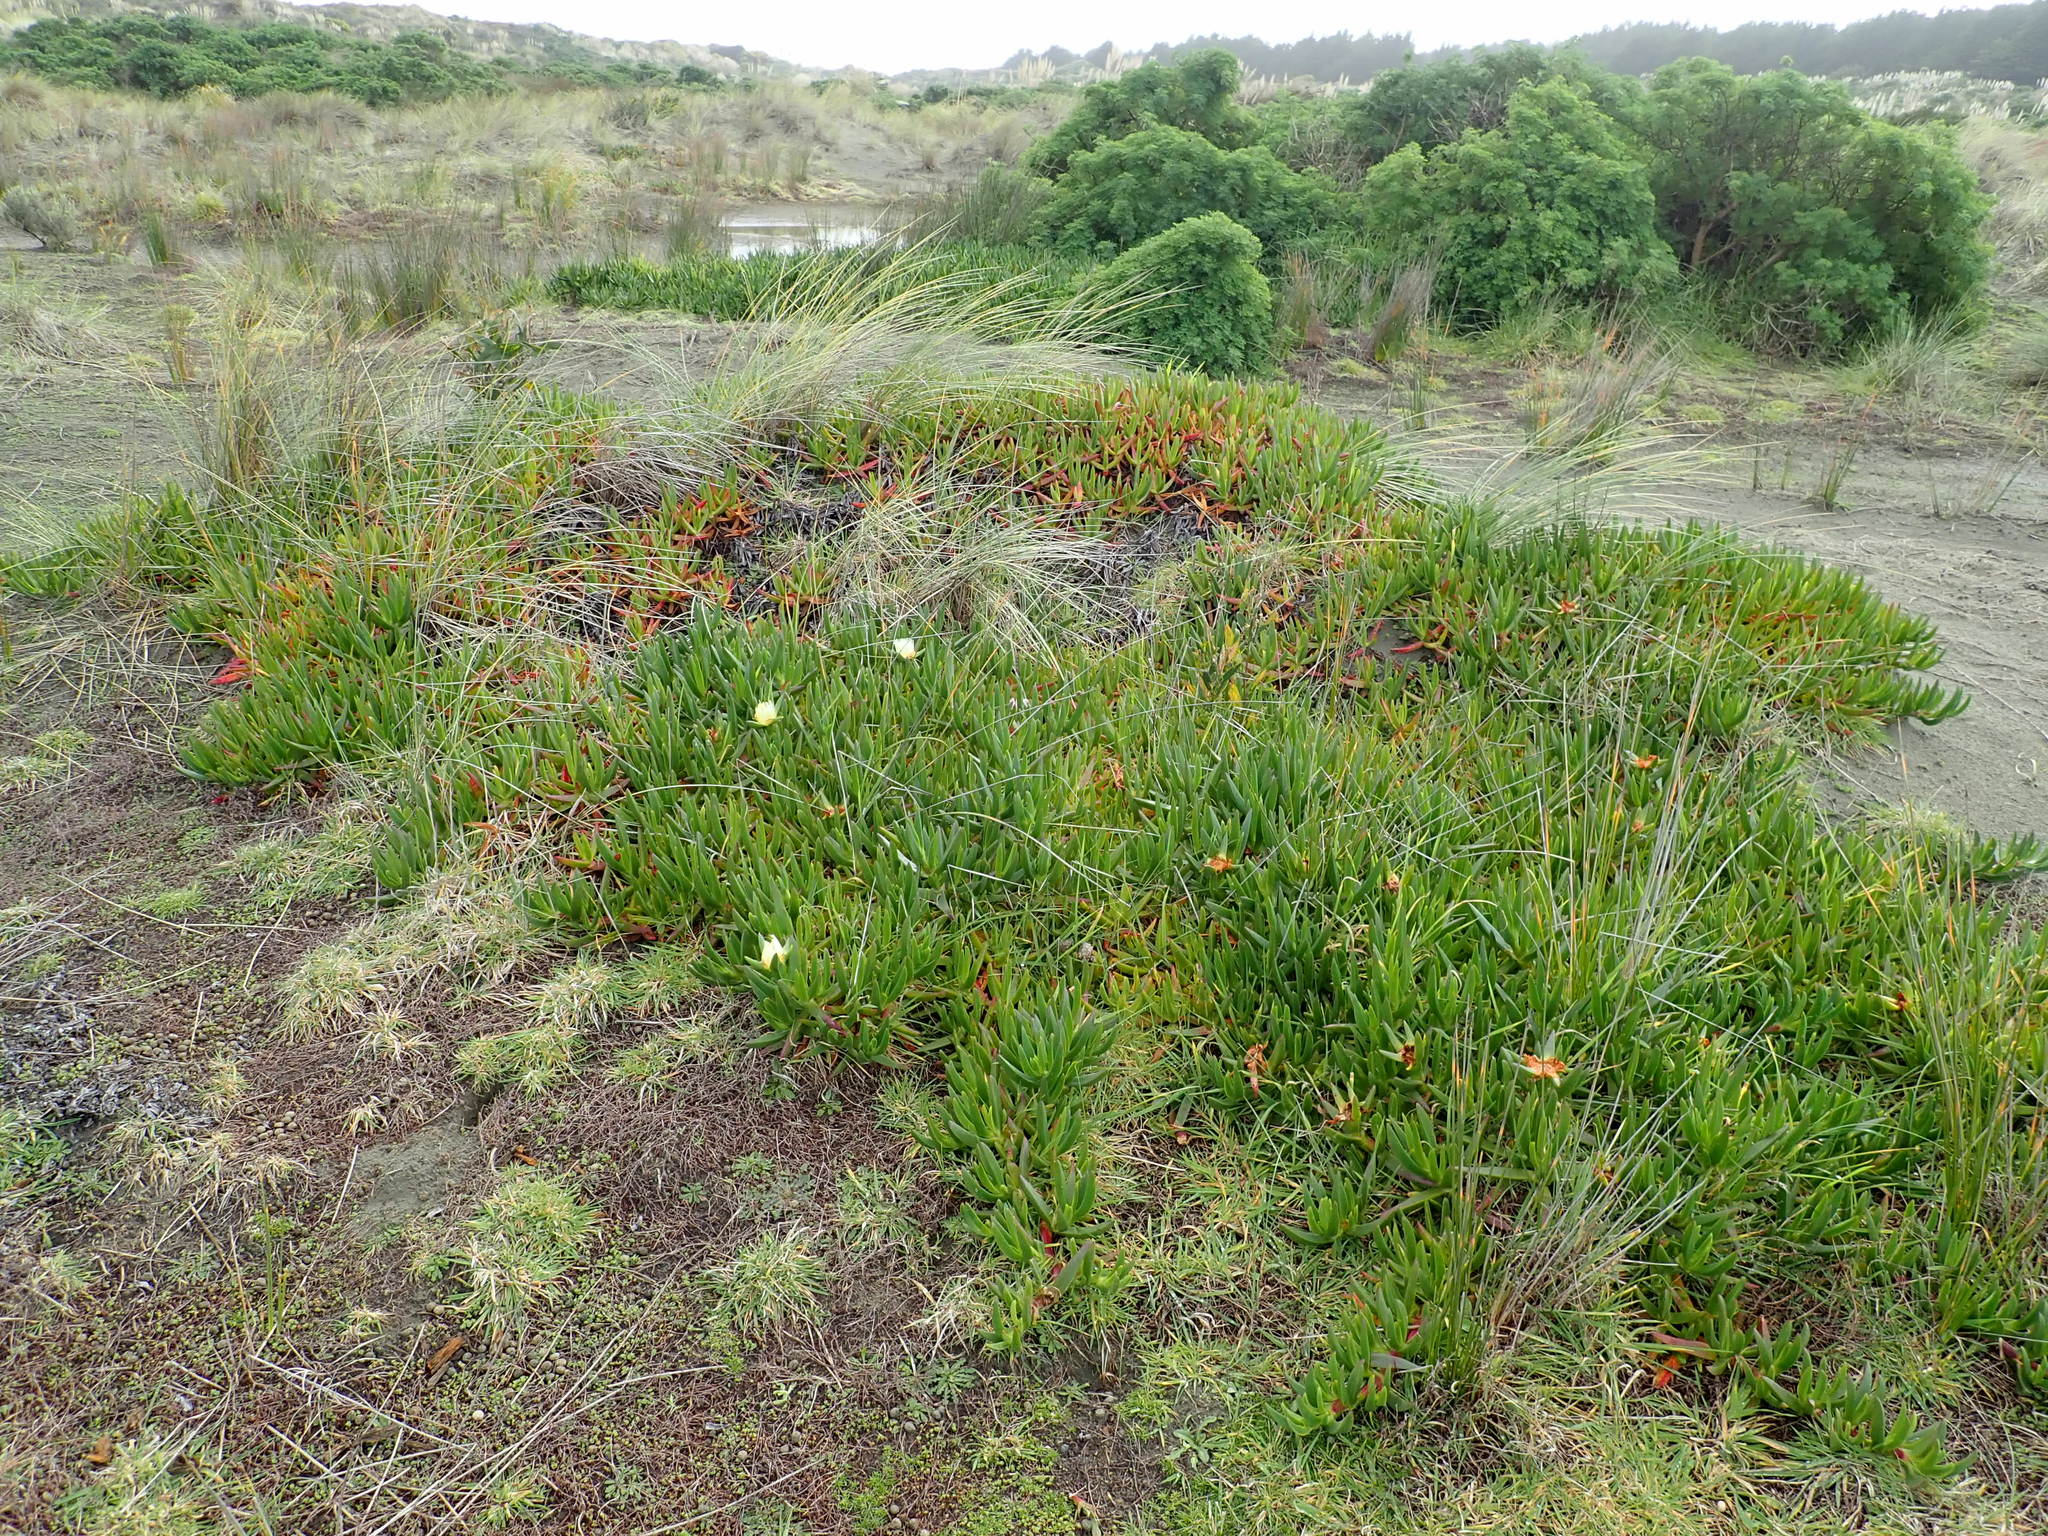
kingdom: Plantae
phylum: Tracheophyta
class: Magnoliopsida
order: Caryophyllales
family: Aizoaceae
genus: Carpobrotus
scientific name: Carpobrotus edulis
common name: Hottentot-fig
